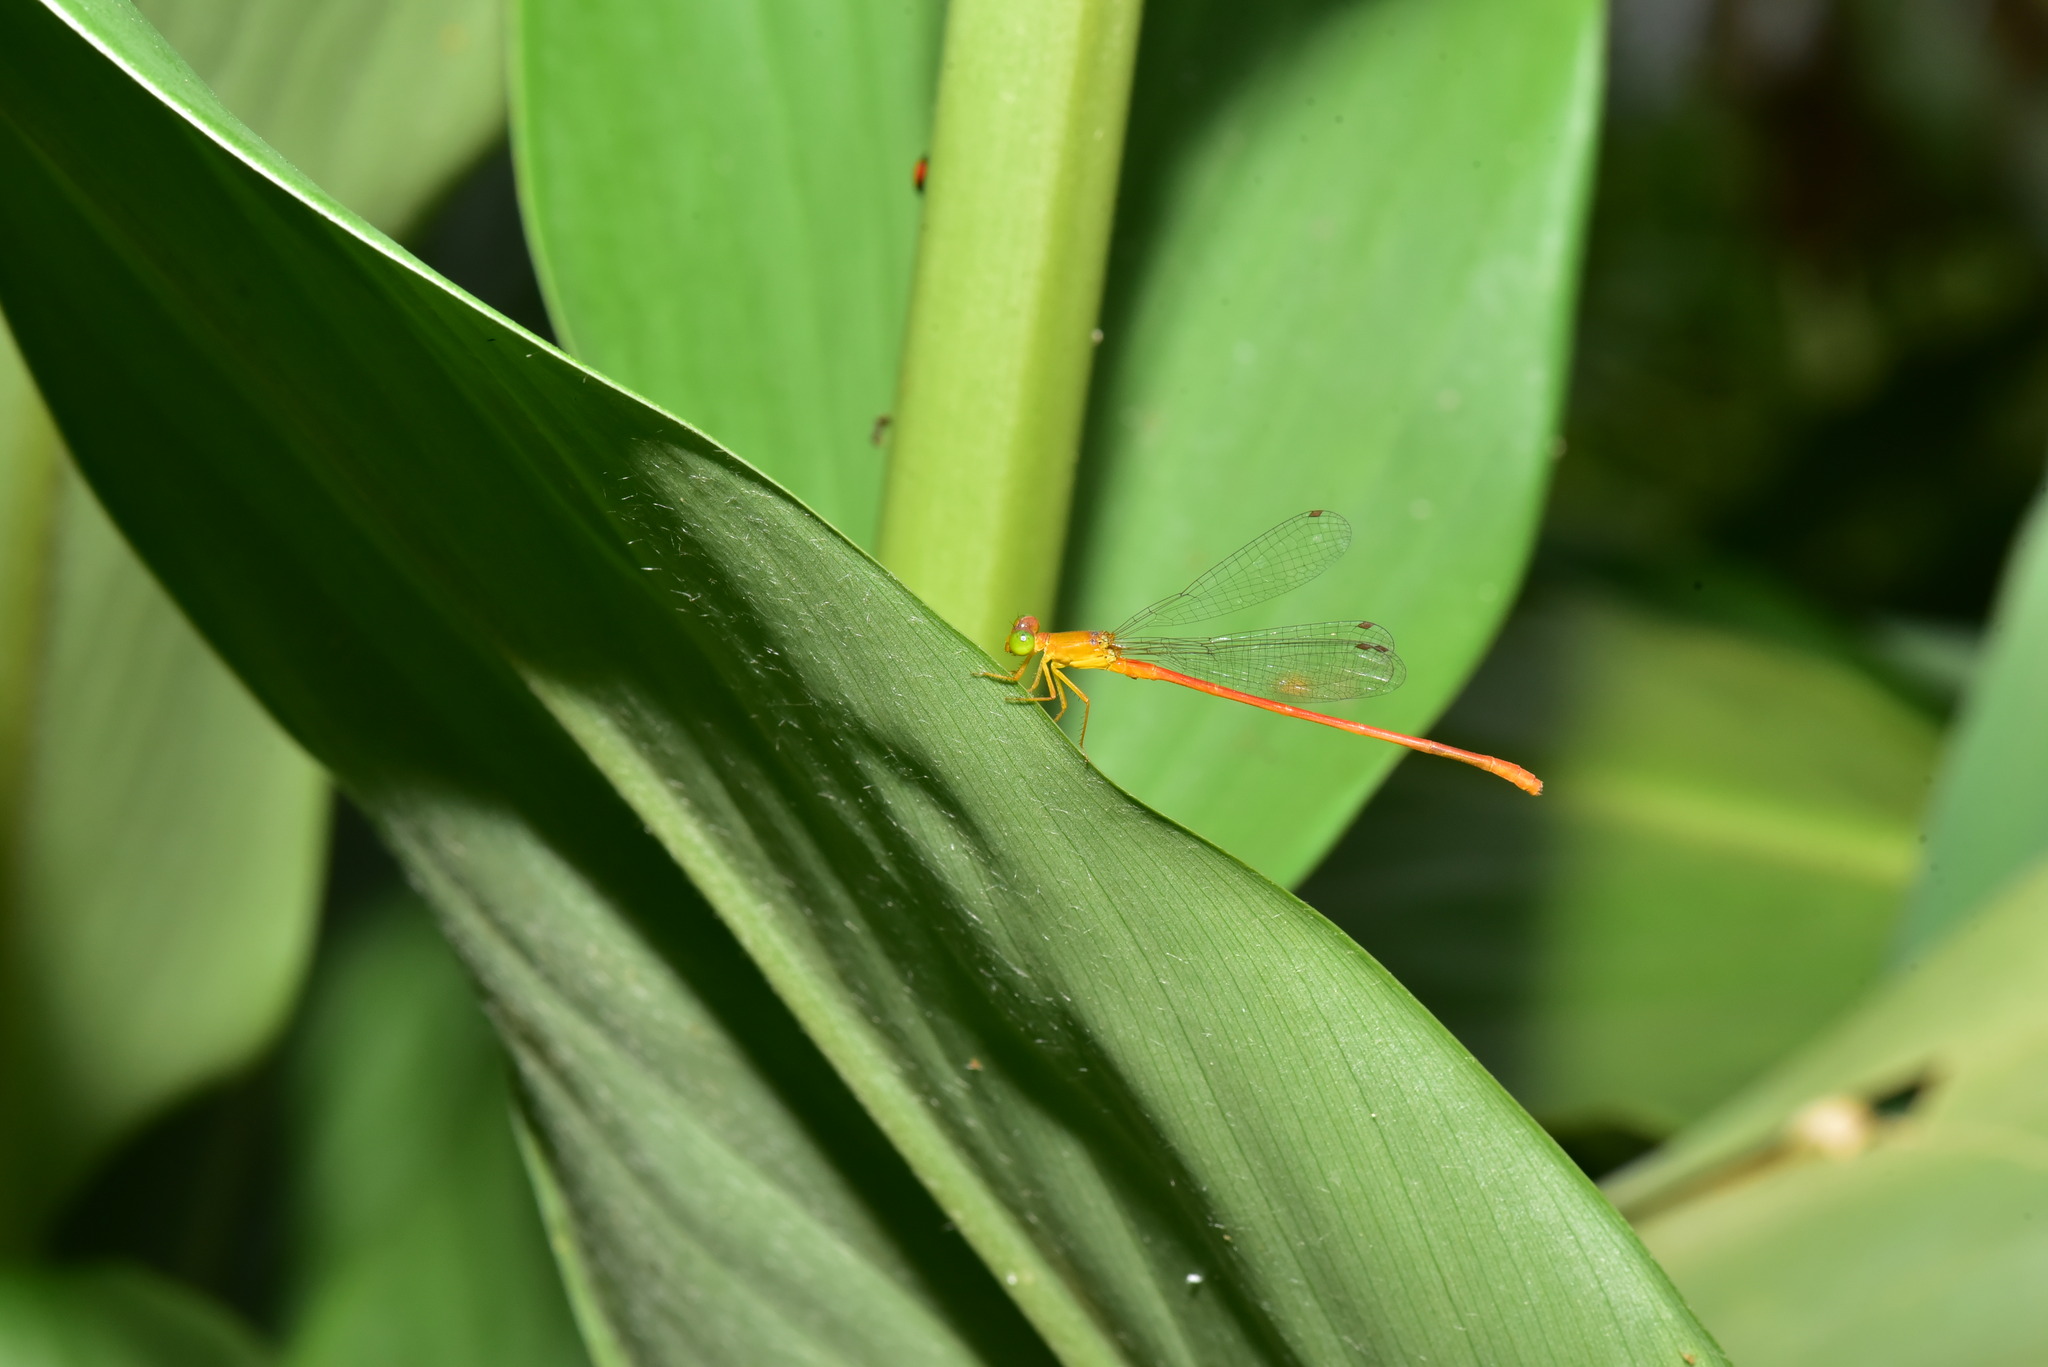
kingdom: Animalia
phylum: Arthropoda
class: Insecta
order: Odonata
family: Coenagrionidae
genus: Ceriagrion
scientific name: Ceriagrion auranticum
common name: Orange-tailed sprite
